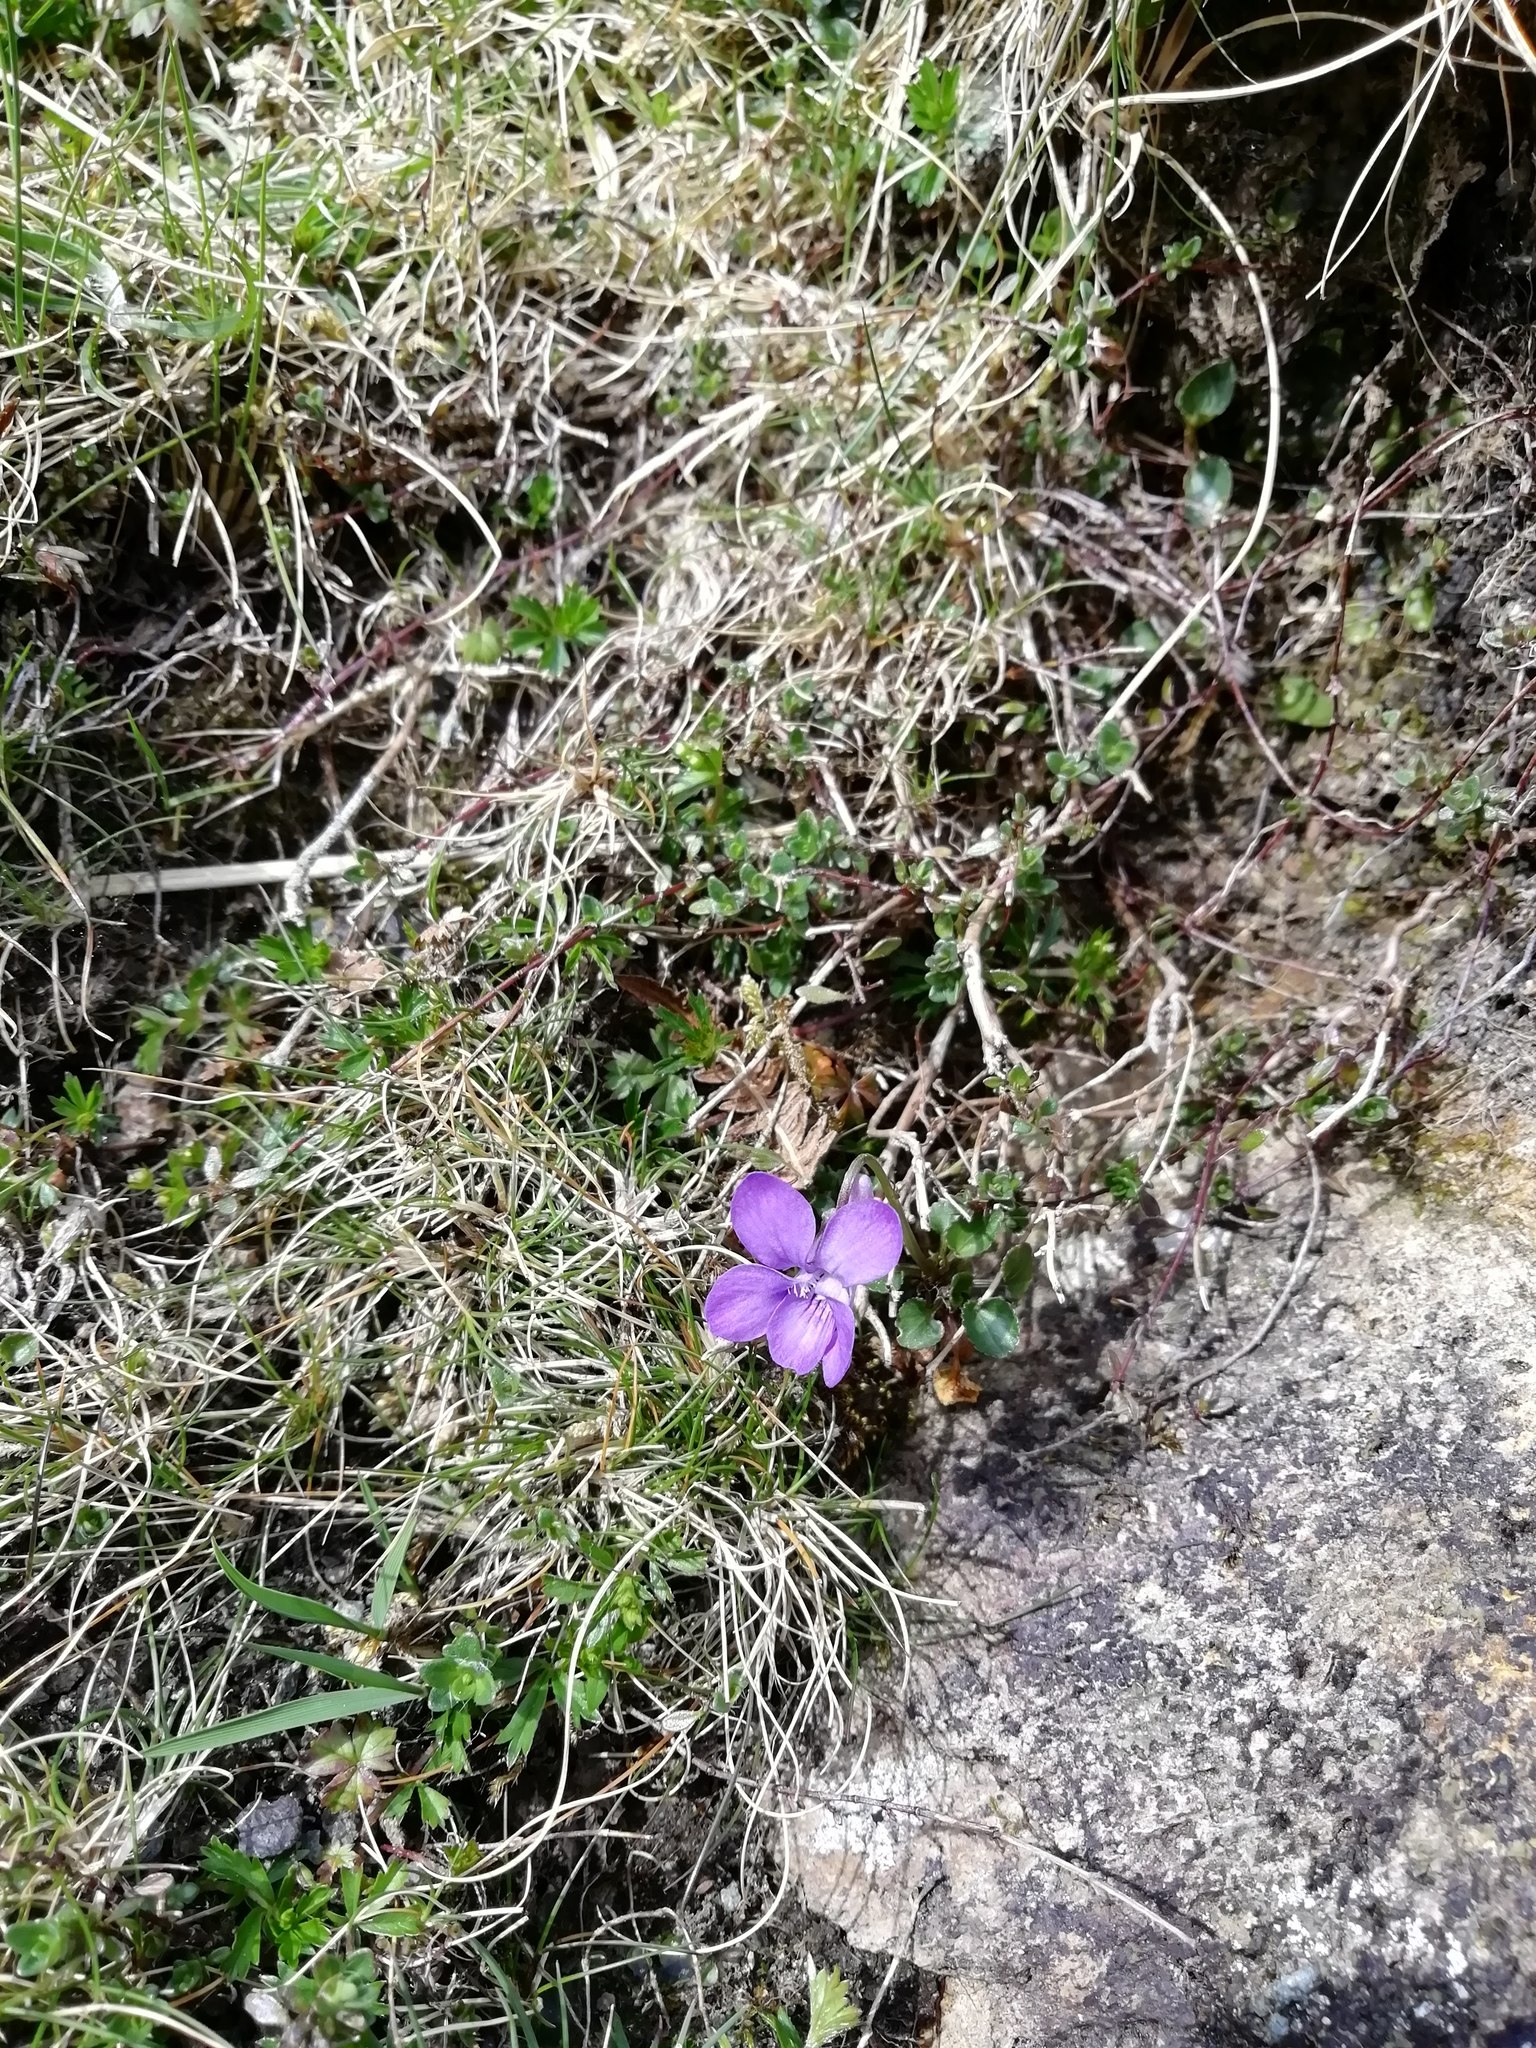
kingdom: Plantae
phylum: Tracheophyta
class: Magnoliopsida
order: Malpighiales
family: Violaceae
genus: Viola
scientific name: Viola riviniana
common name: Common dog-violet
